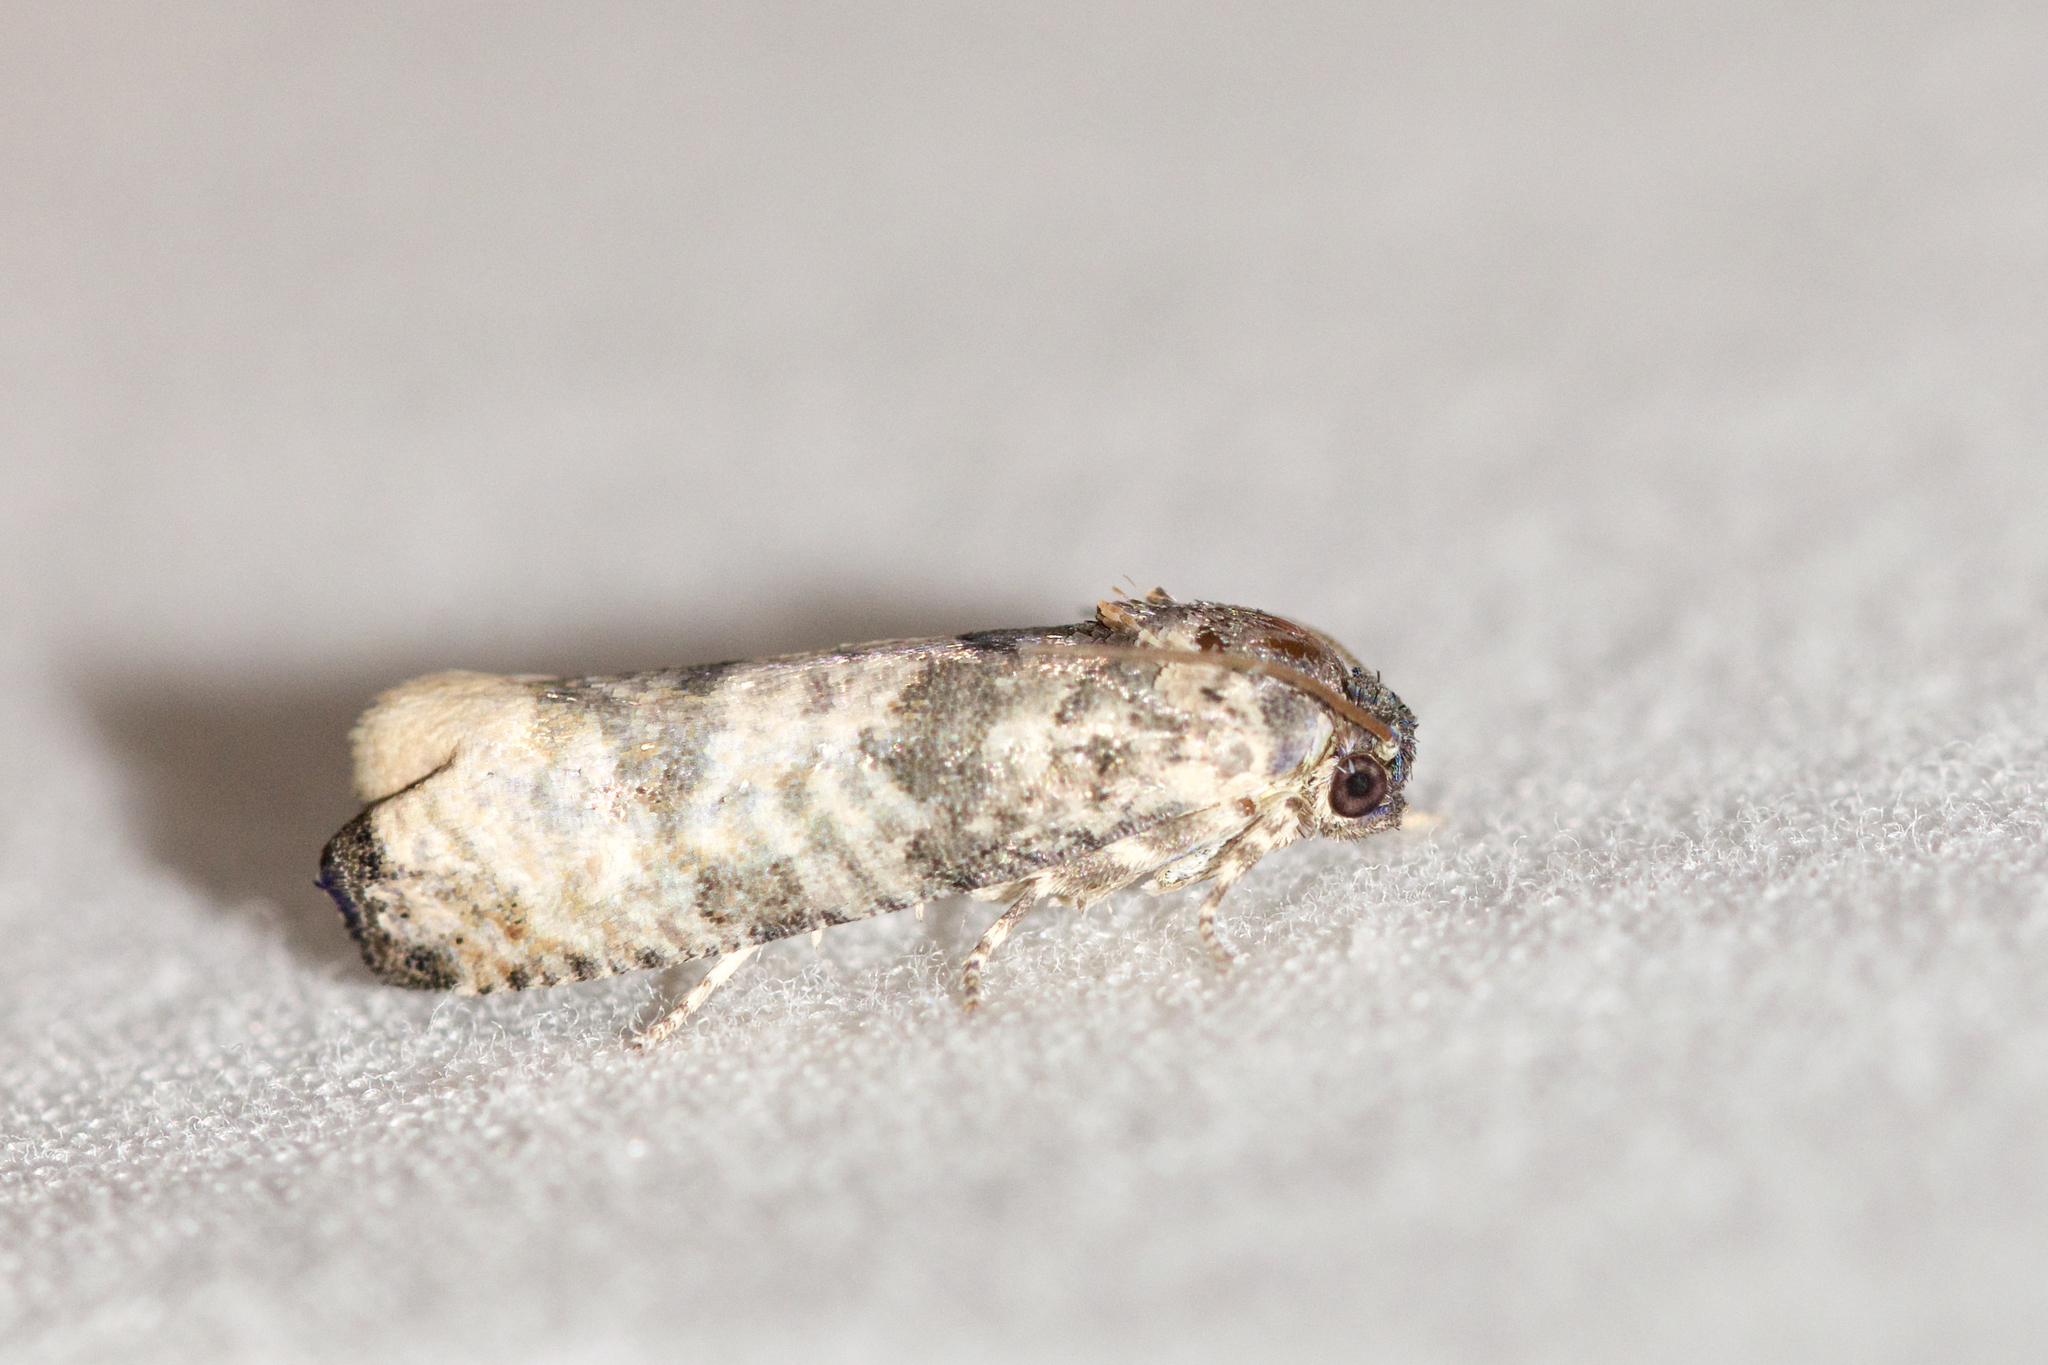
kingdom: Animalia
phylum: Arthropoda
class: Insecta
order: Lepidoptera
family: Tortricidae
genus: Epiblema
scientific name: Epiblema obfuscana
